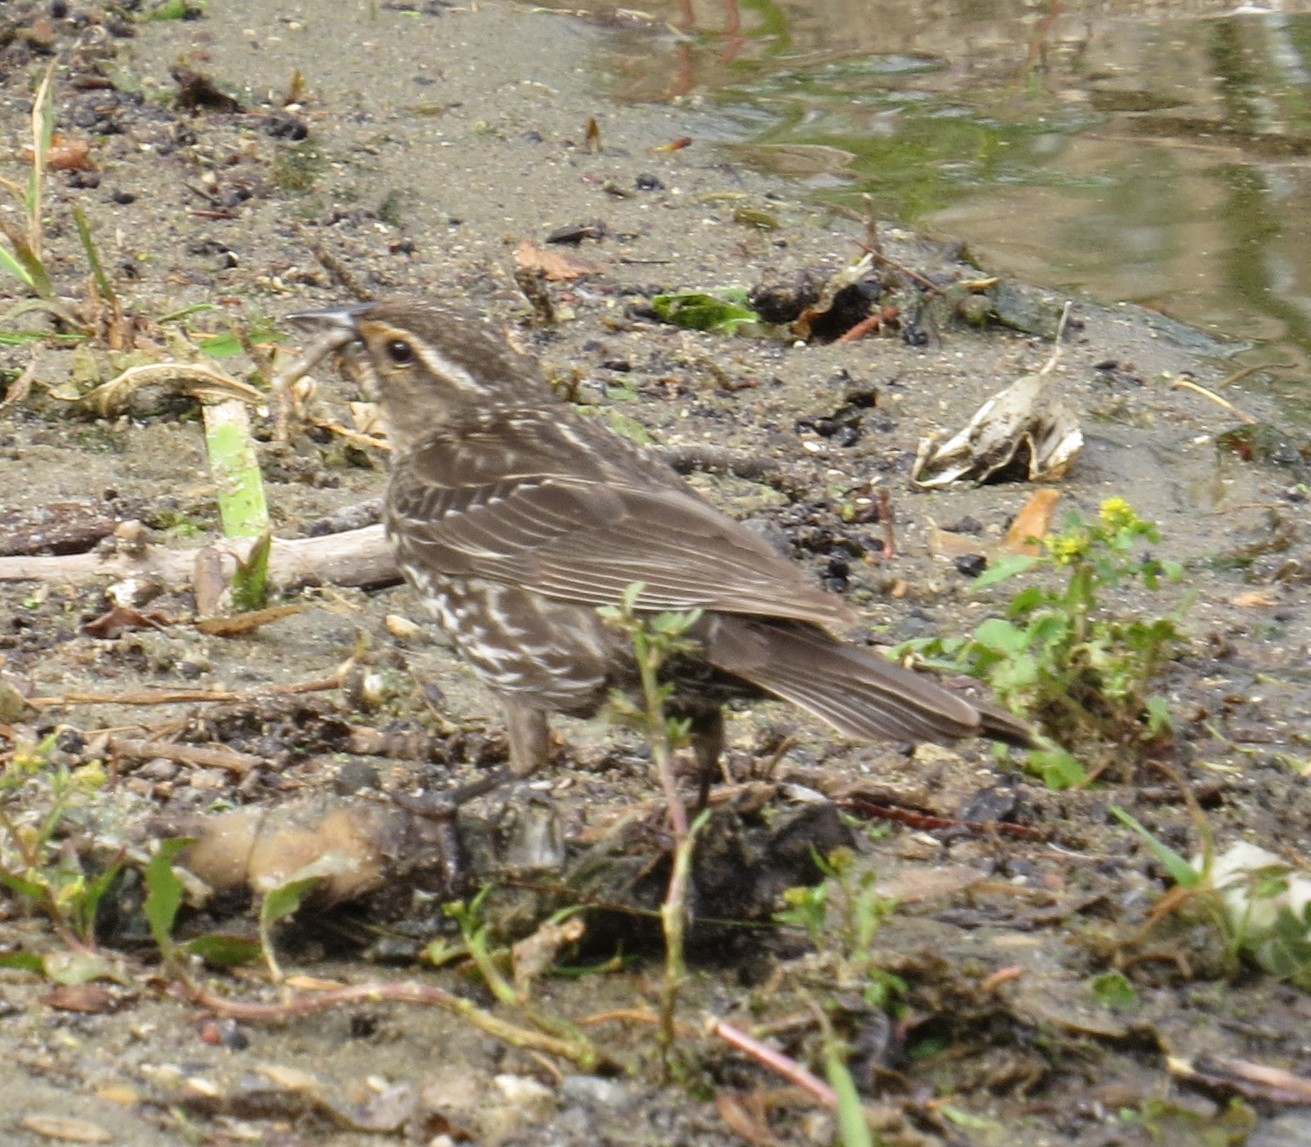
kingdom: Animalia
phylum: Chordata
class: Aves
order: Passeriformes
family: Icteridae
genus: Agelaius
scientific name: Agelaius phoeniceus
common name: Red-winged blackbird
